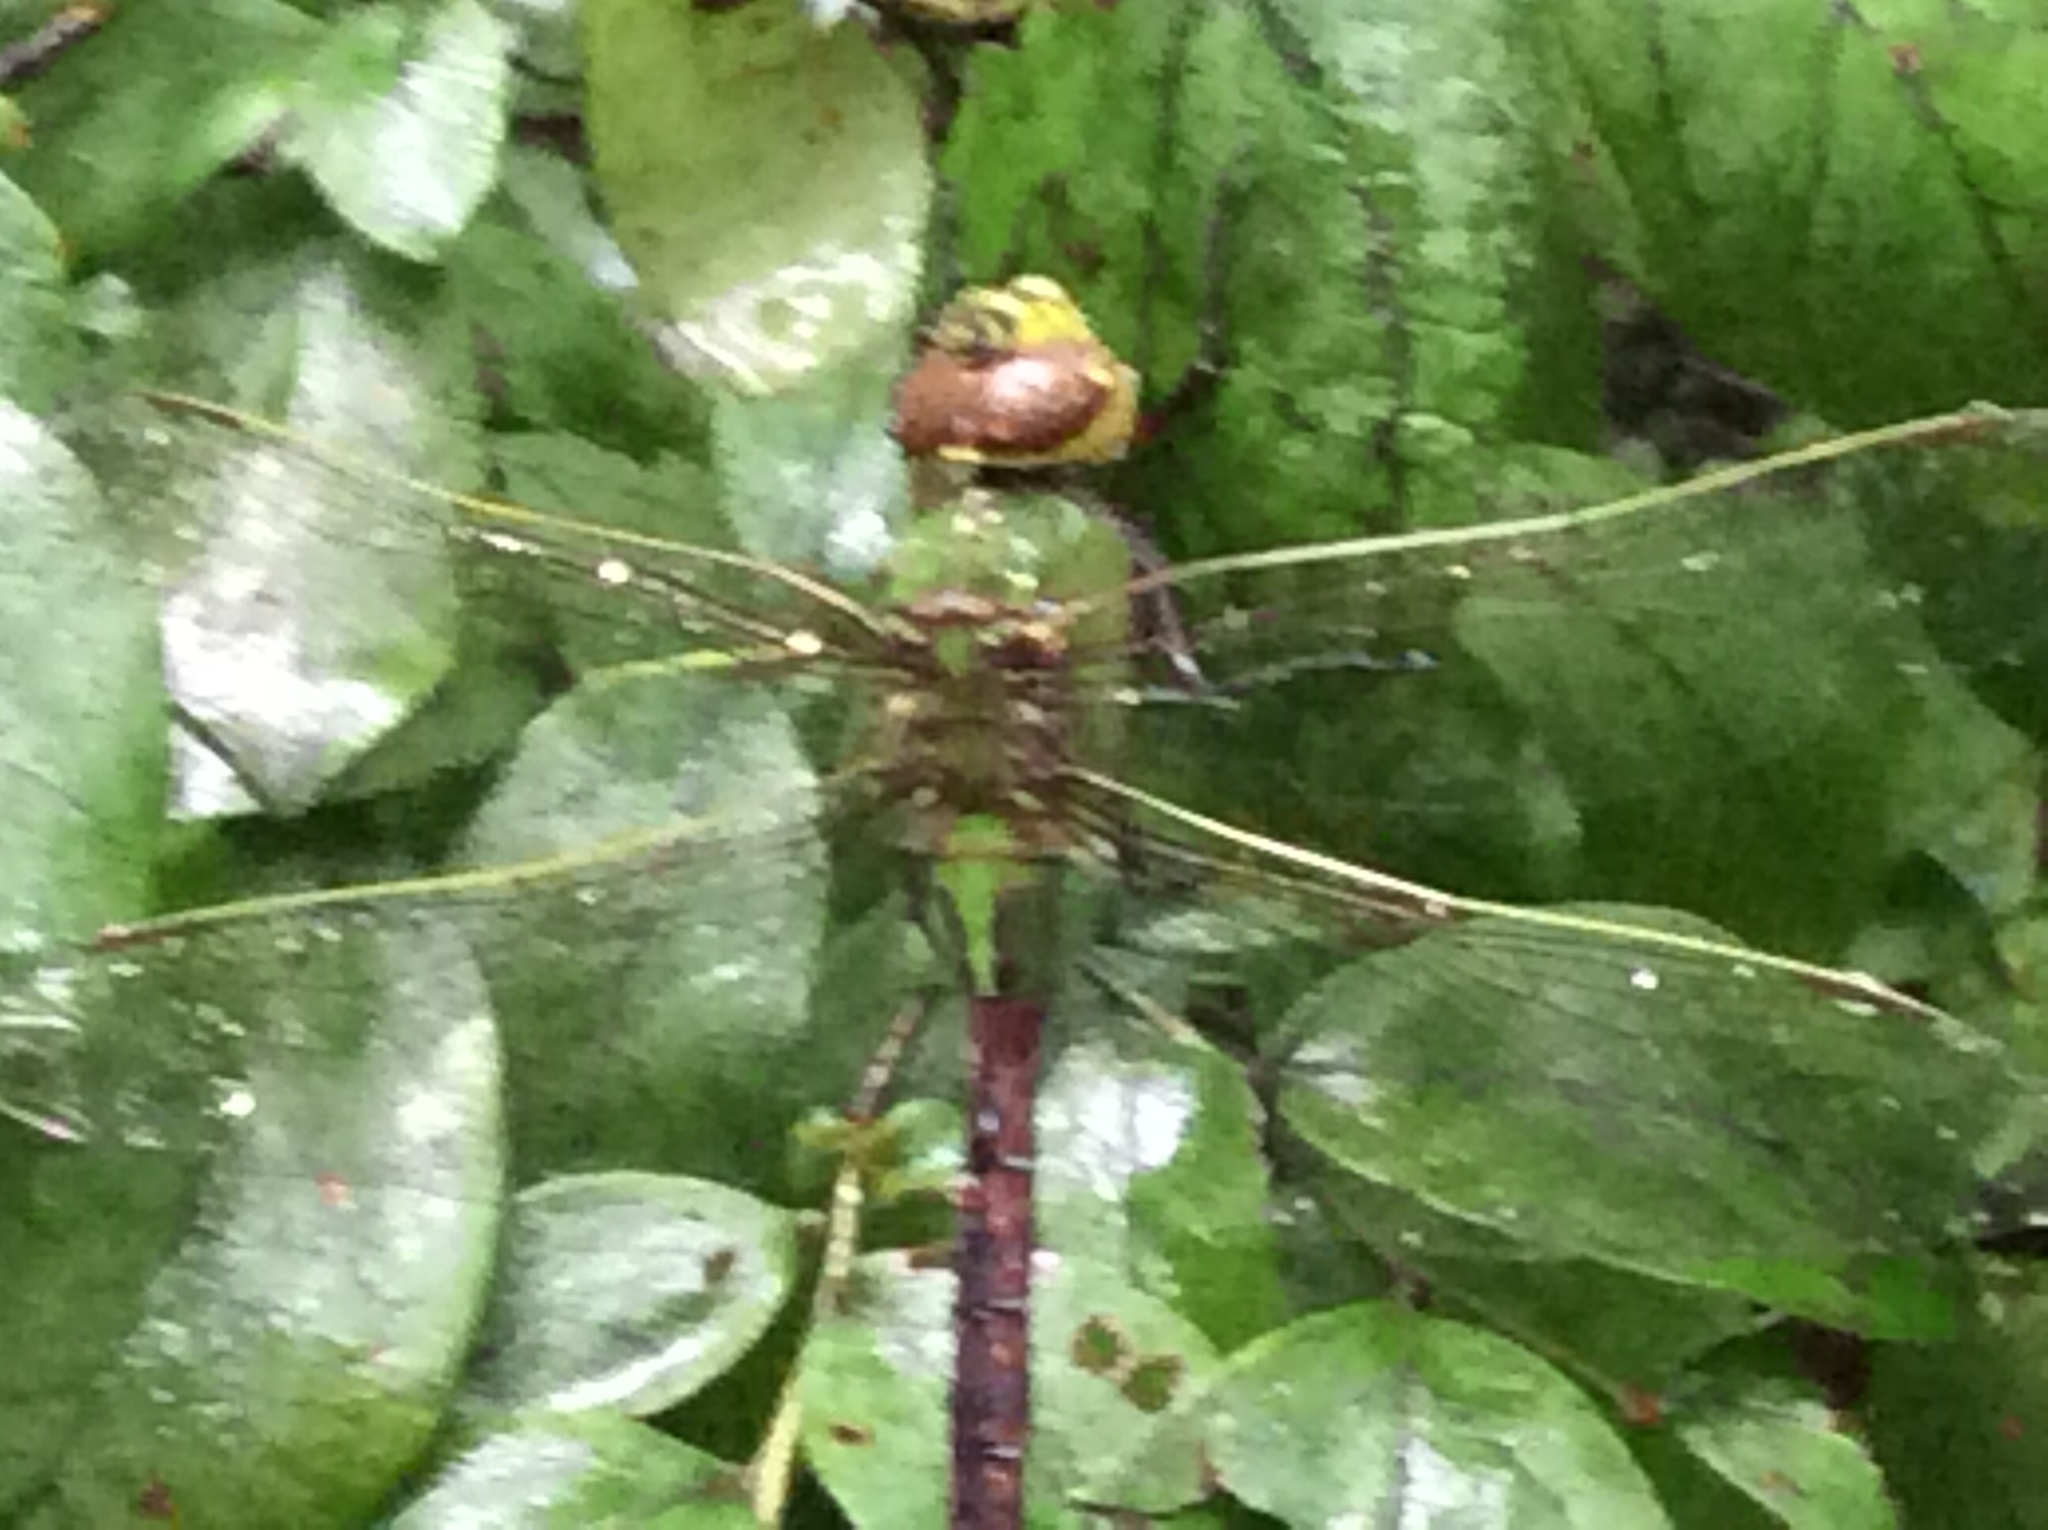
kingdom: Animalia
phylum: Arthropoda
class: Insecta
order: Odonata
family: Aeshnidae
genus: Anax
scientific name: Anax junius
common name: Common green darner
